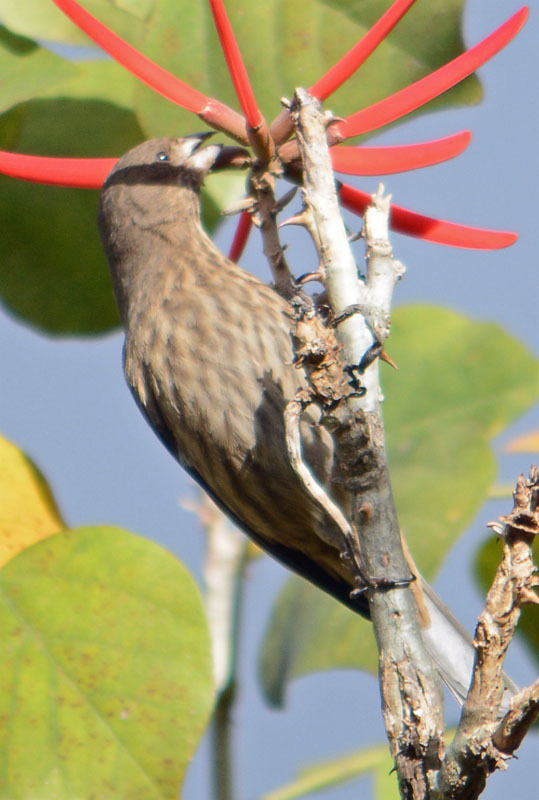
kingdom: Animalia
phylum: Chordata
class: Aves
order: Passeriformes
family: Fringillidae
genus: Haemorhous
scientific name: Haemorhous mexicanus
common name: House finch
